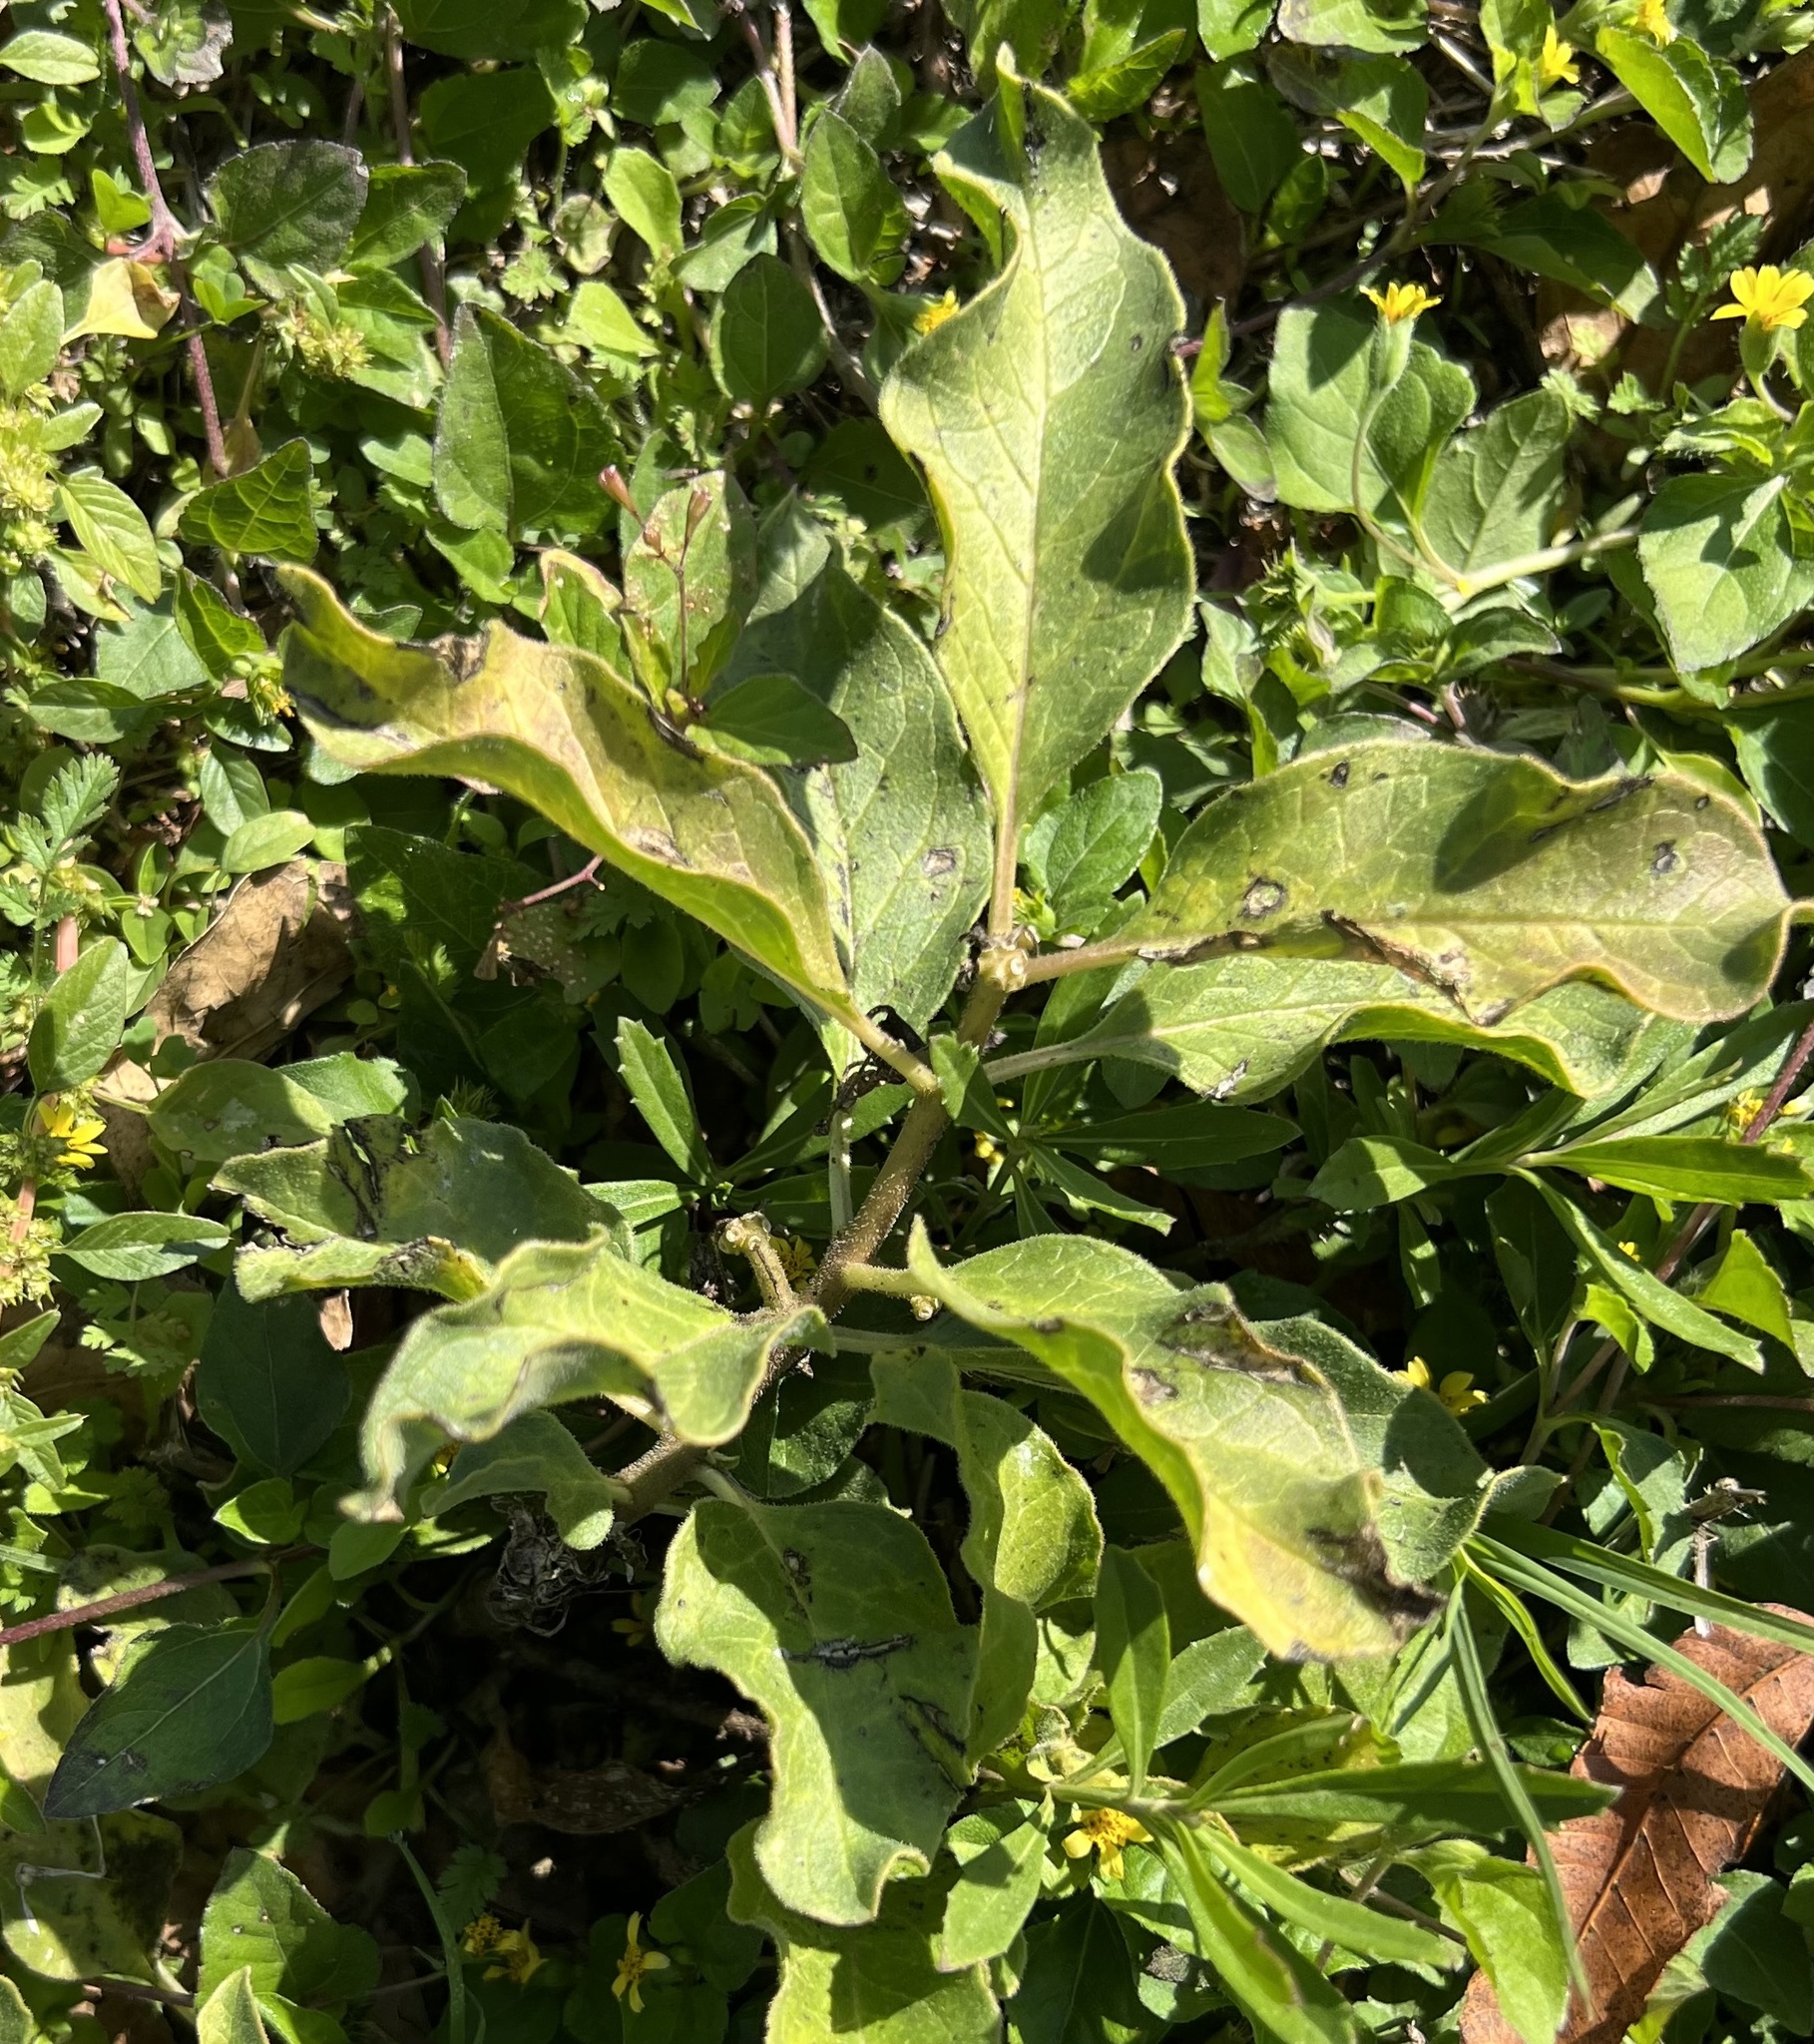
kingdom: Plantae
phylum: Tracheophyta
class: Magnoliopsida
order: Gentianales
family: Apocynaceae
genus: Asclepias
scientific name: Asclepias oenotheroides
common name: Zizotes milkweed
